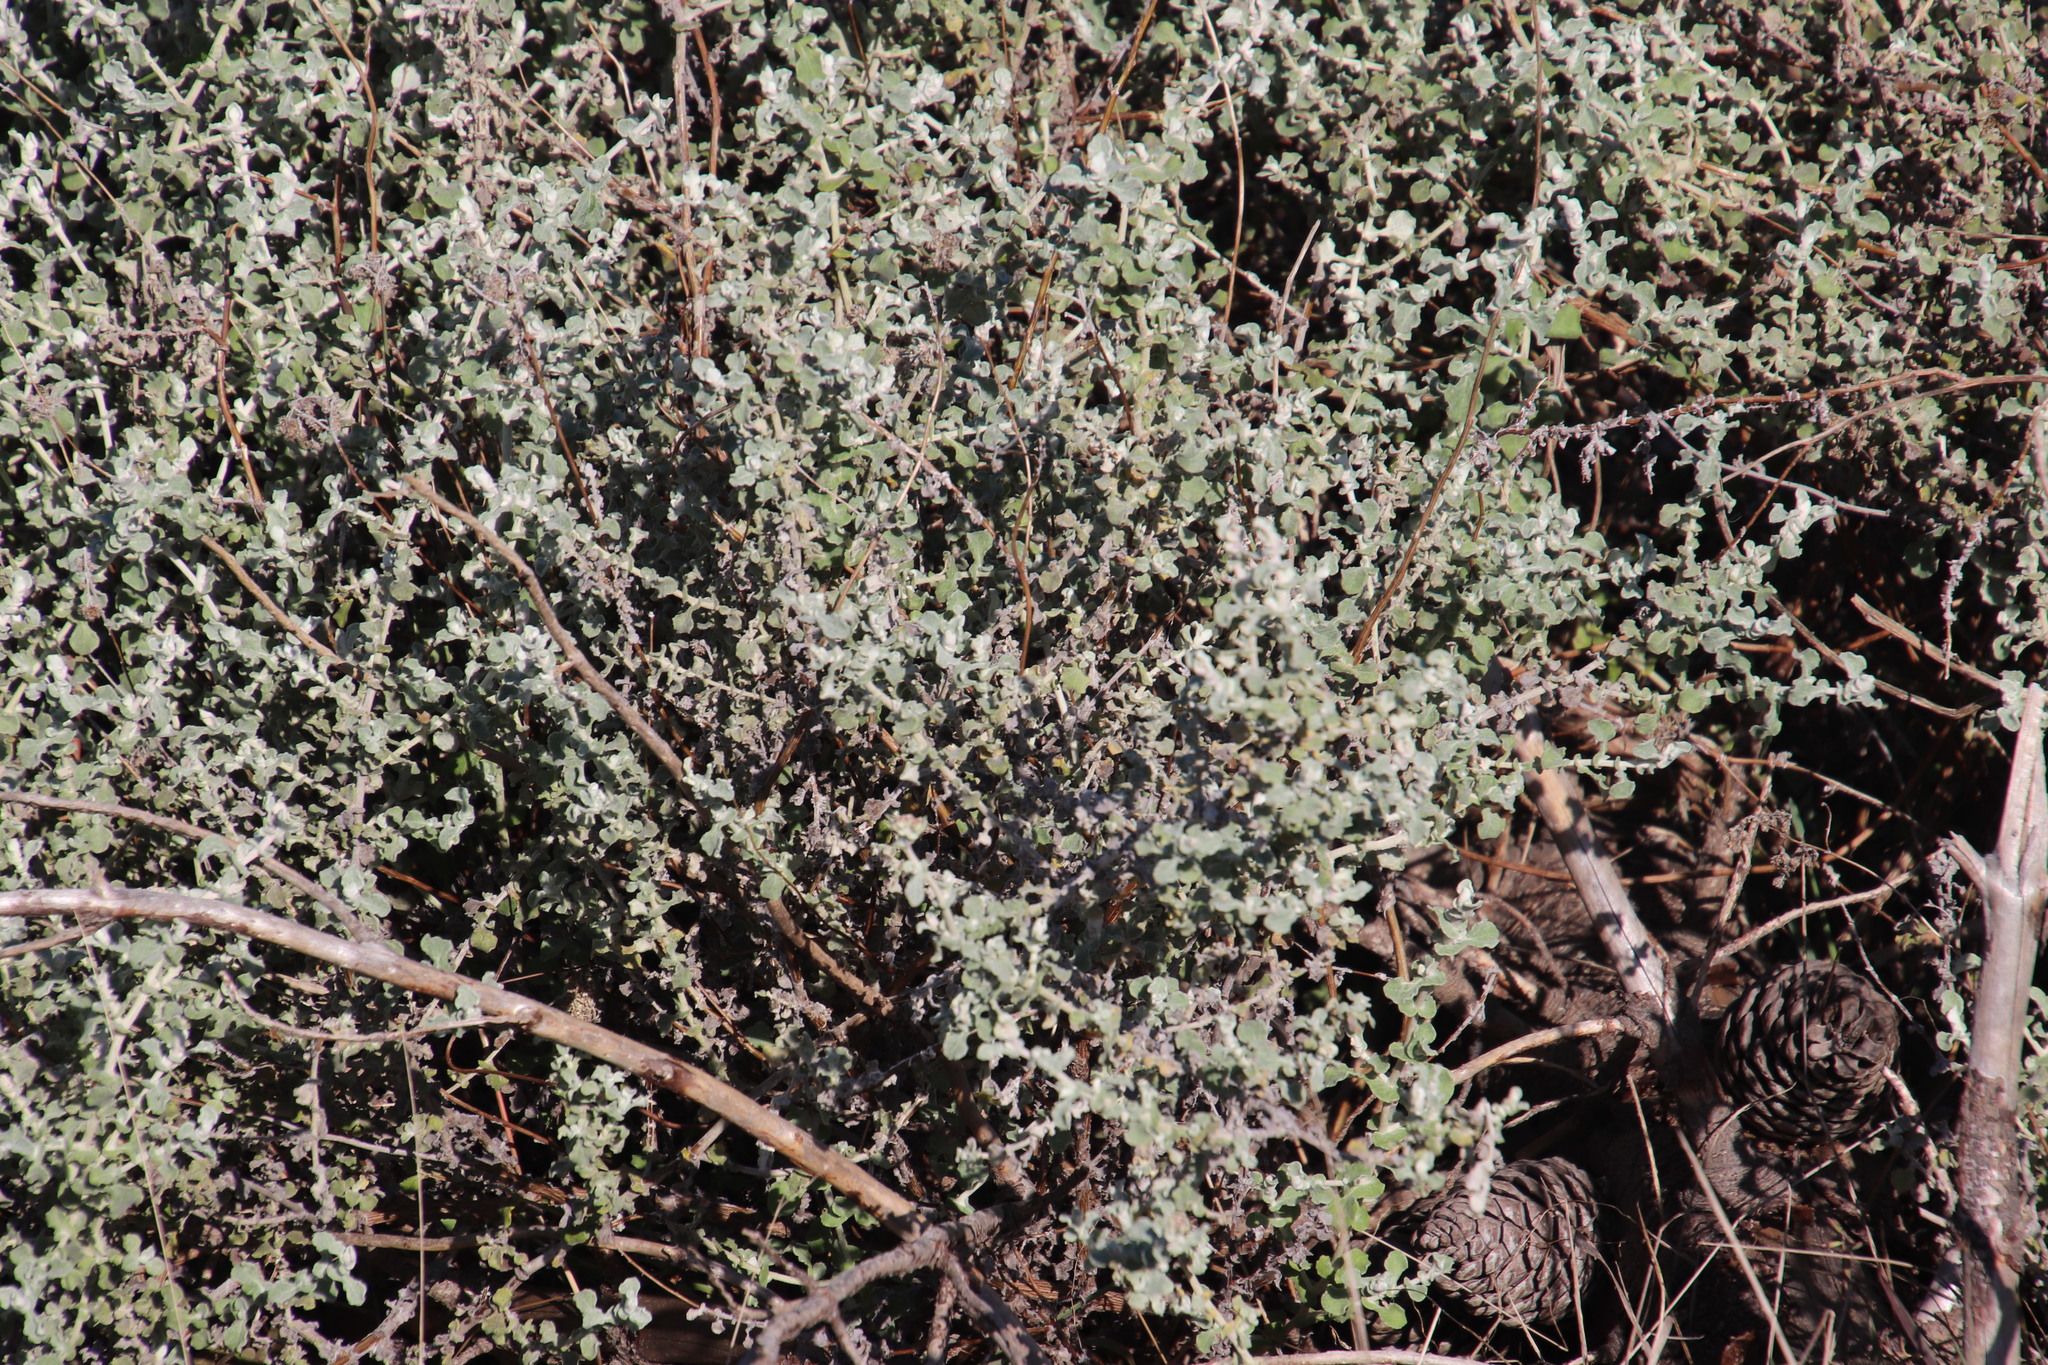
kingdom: Plantae
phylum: Tracheophyta
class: Magnoliopsida
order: Asterales
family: Asteraceae
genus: Helichrysum
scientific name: Helichrysum patulum
